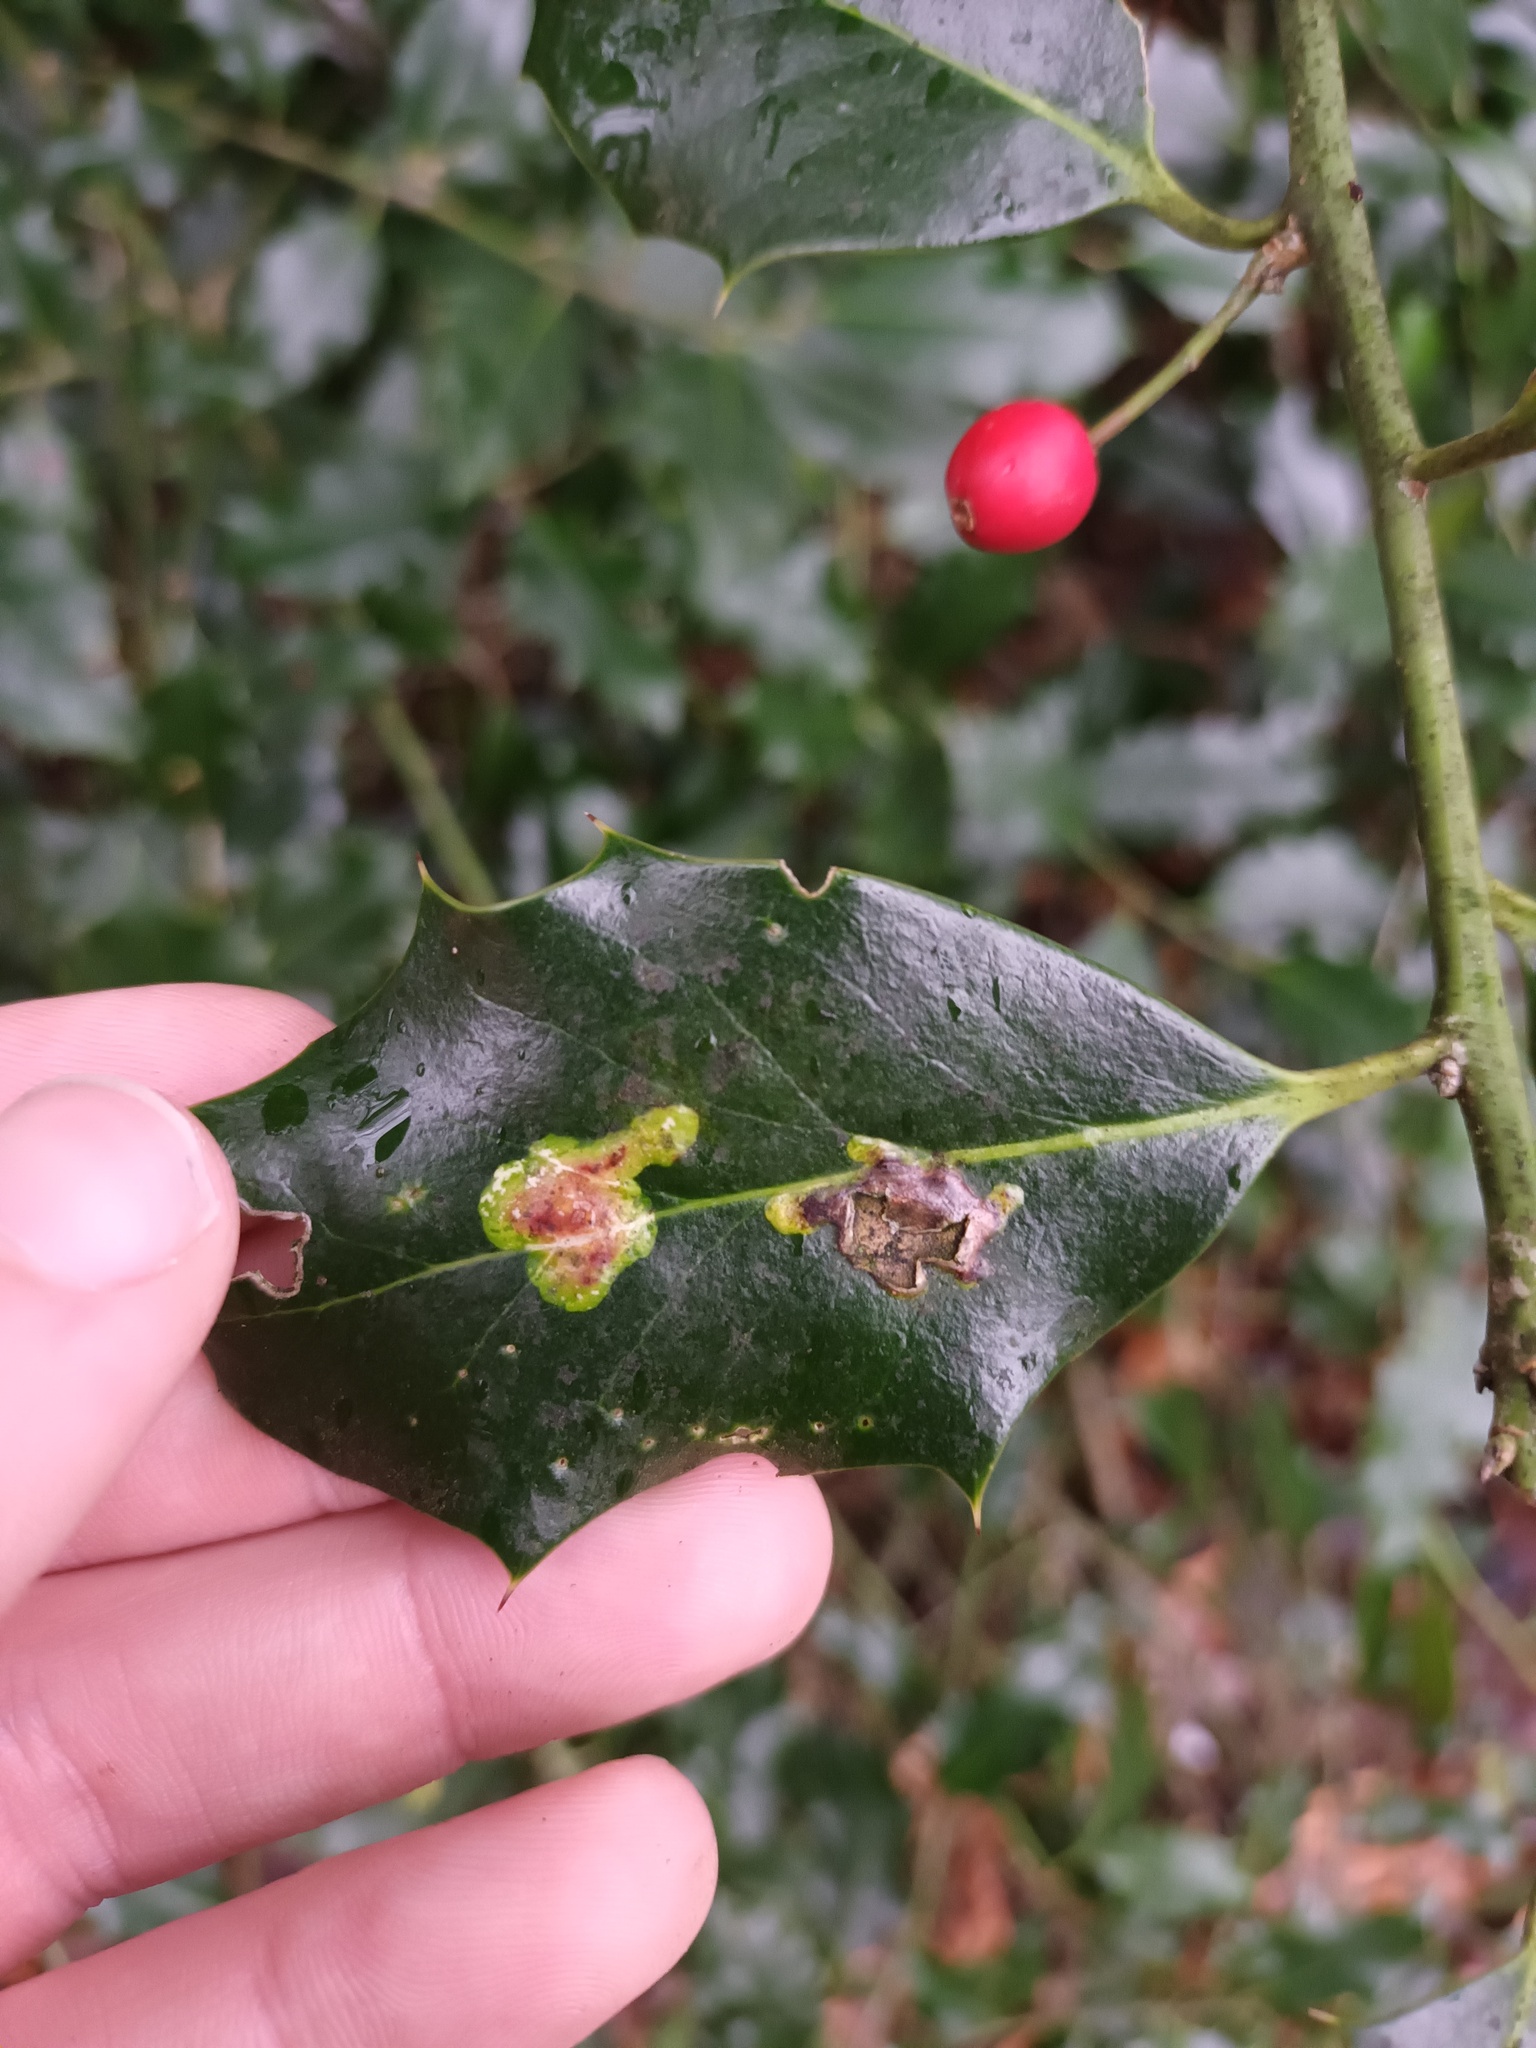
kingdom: Animalia
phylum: Arthropoda
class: Insecta
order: Diptera
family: Agromyzidae
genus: Phytomyza
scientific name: Phytomyza ilicis
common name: Holly leafminer
